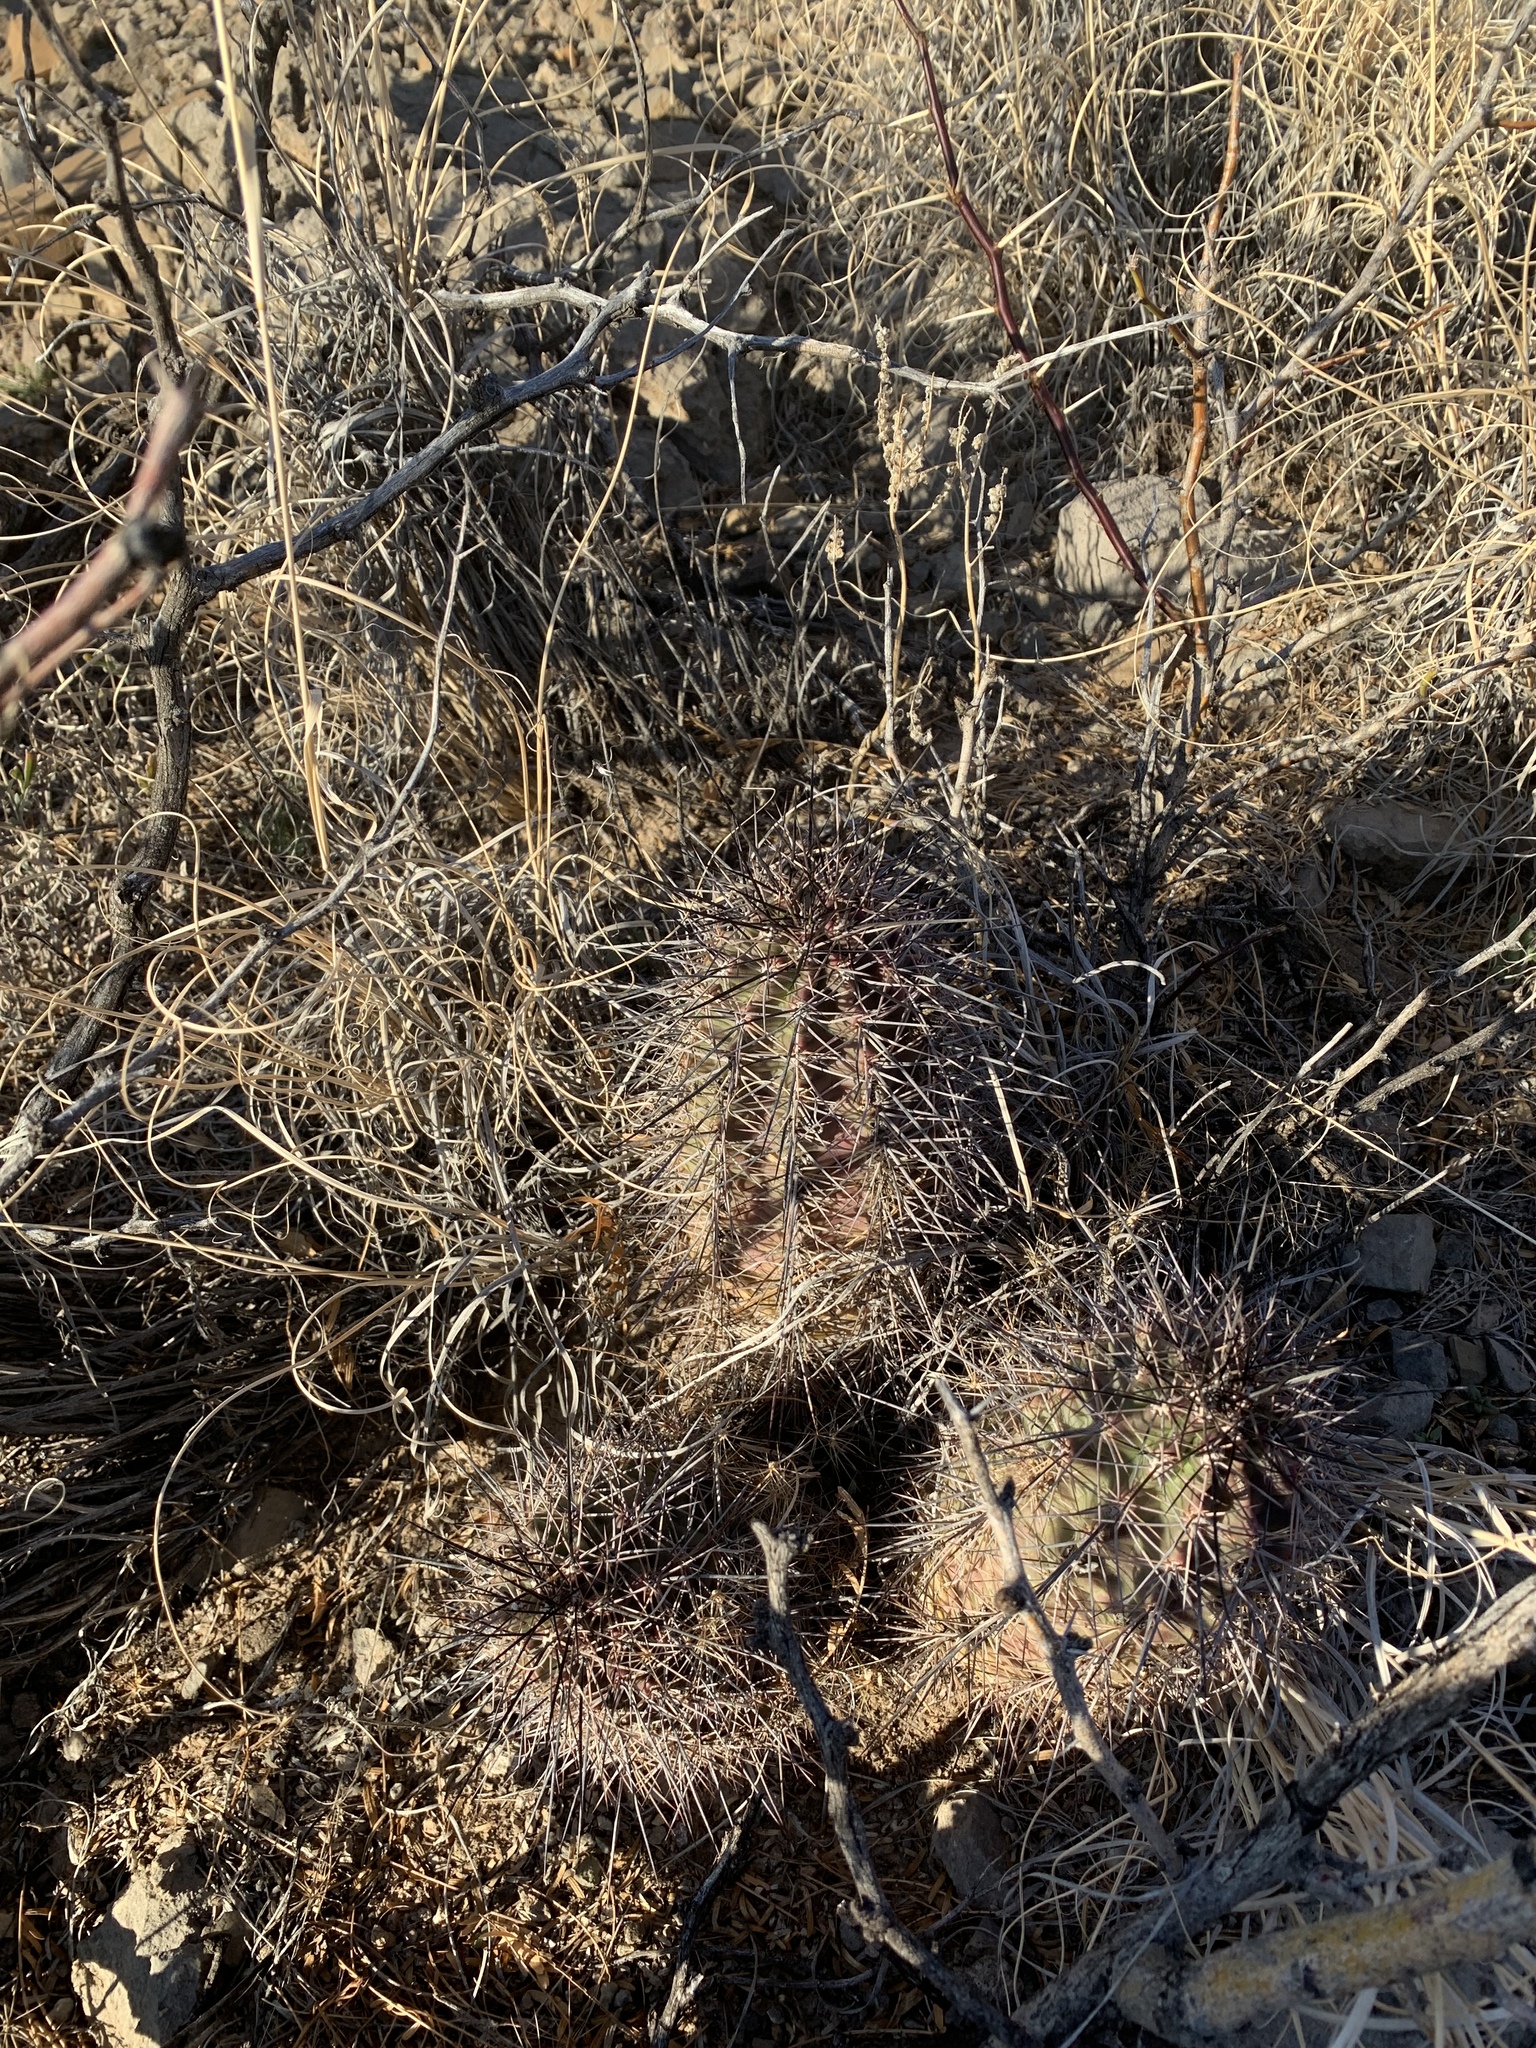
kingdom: Plantae
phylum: Tracheophyta
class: Magnoliopsida
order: Caryophyllales
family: Cactaceae
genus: Echinocereus
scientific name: Echinocereus coccineus
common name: Scarlet hedgehog cactus
